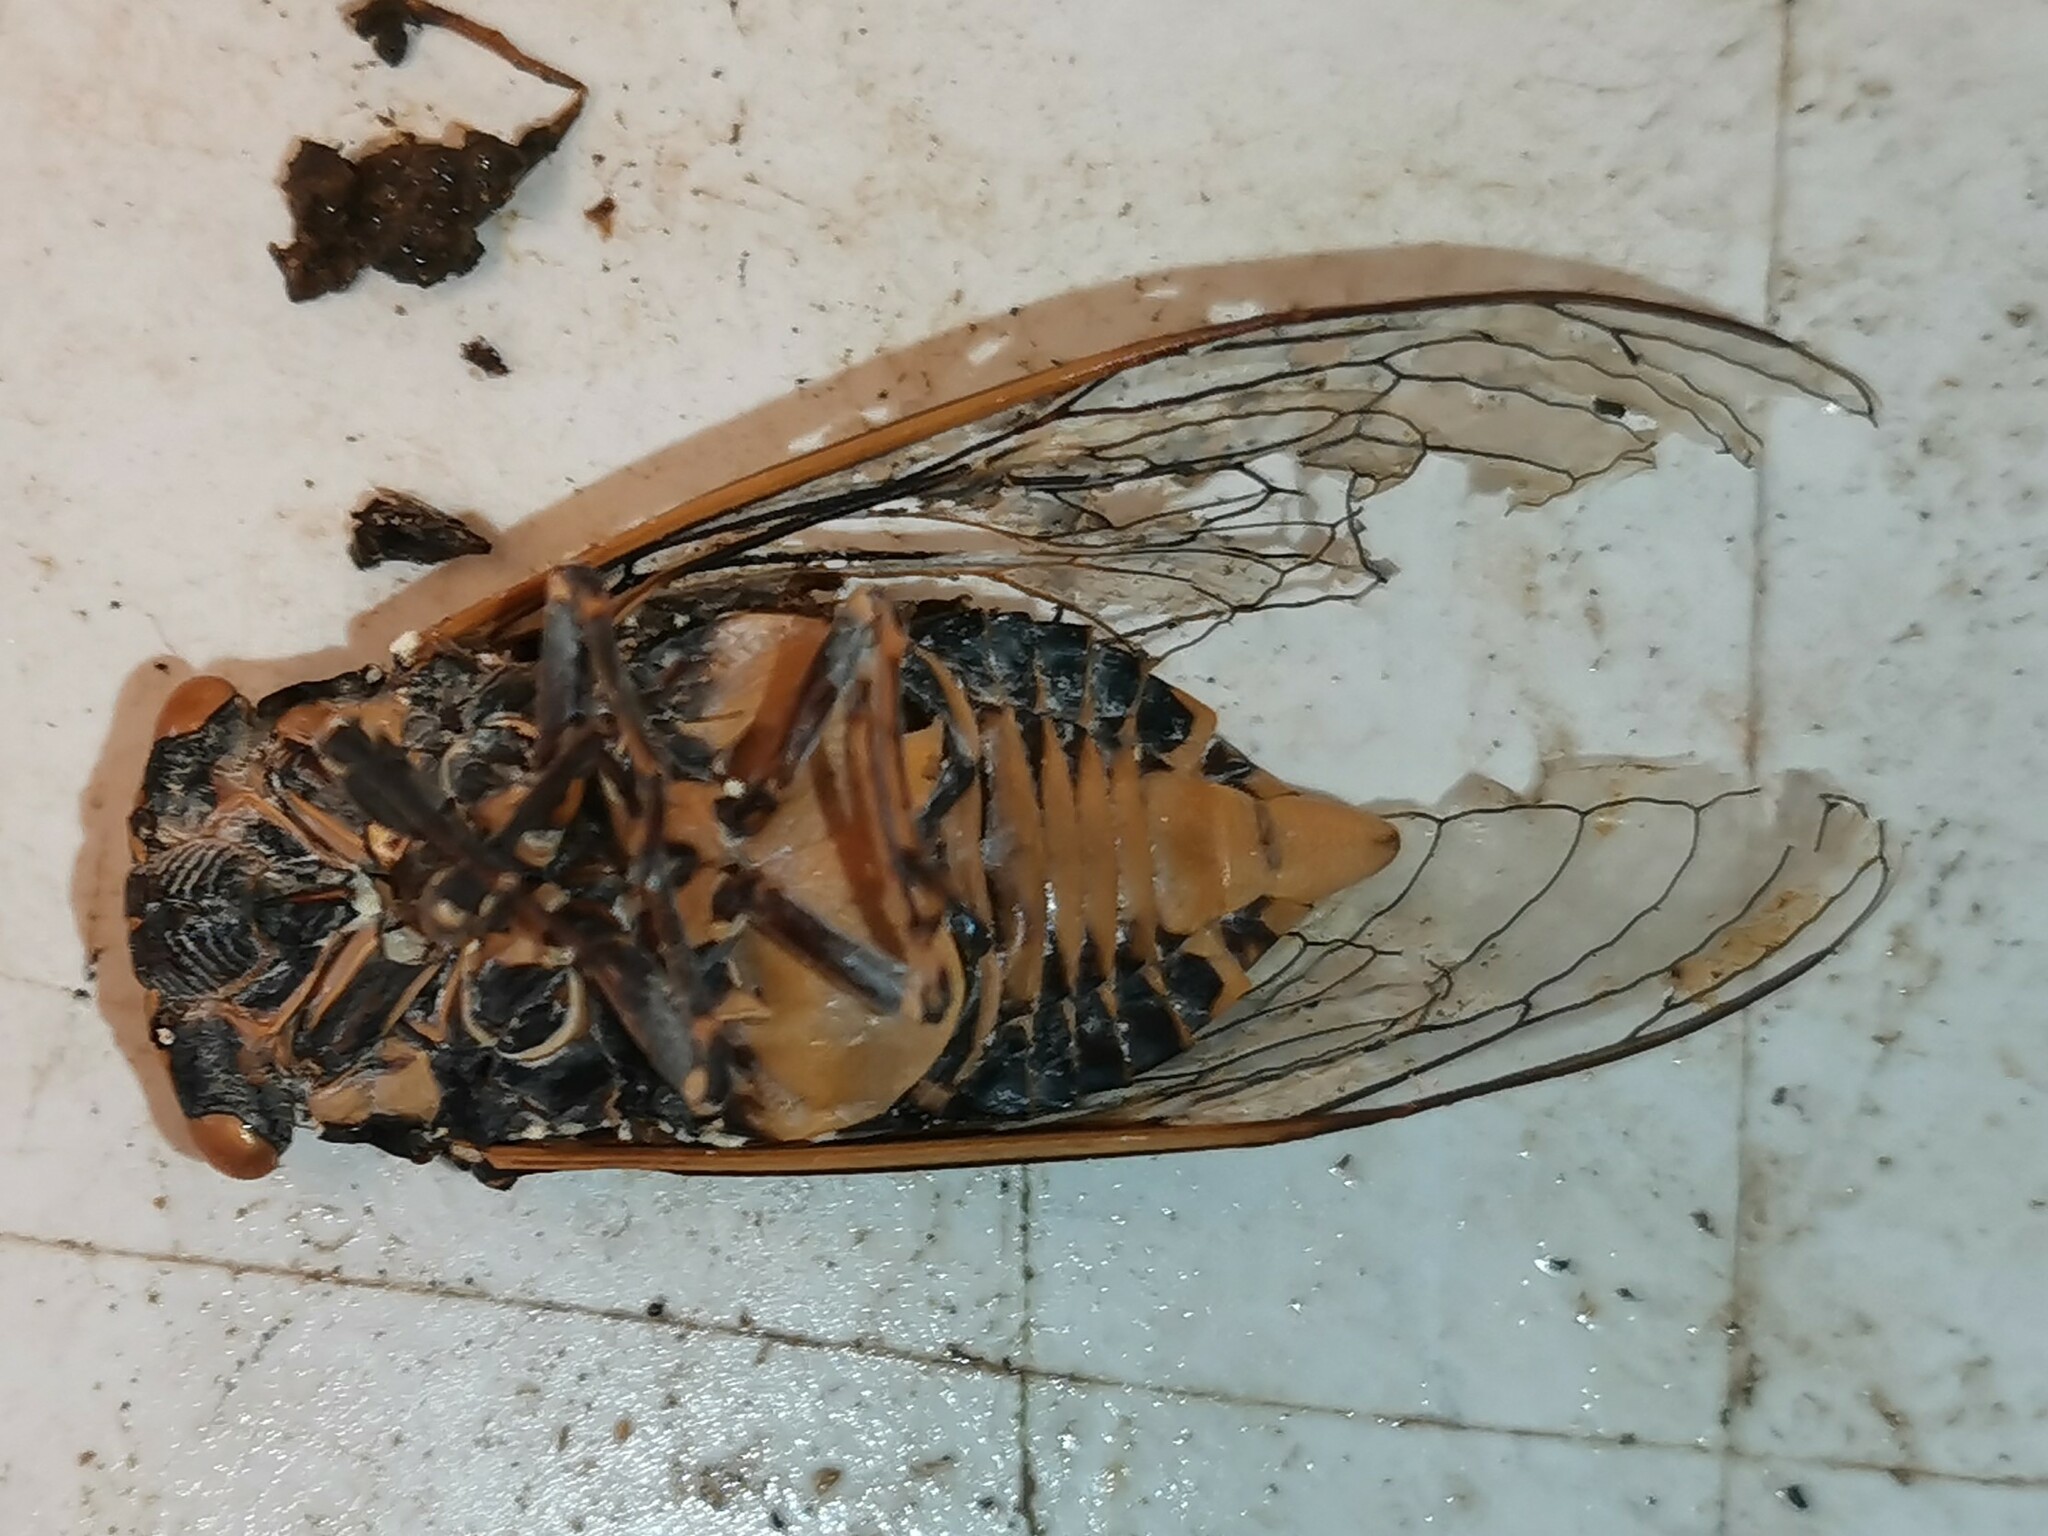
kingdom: Animalia
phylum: Arthropoda
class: Insecta
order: Hemiptera
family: Cicadidae
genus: Lyristes
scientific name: Lyristes plebejus
